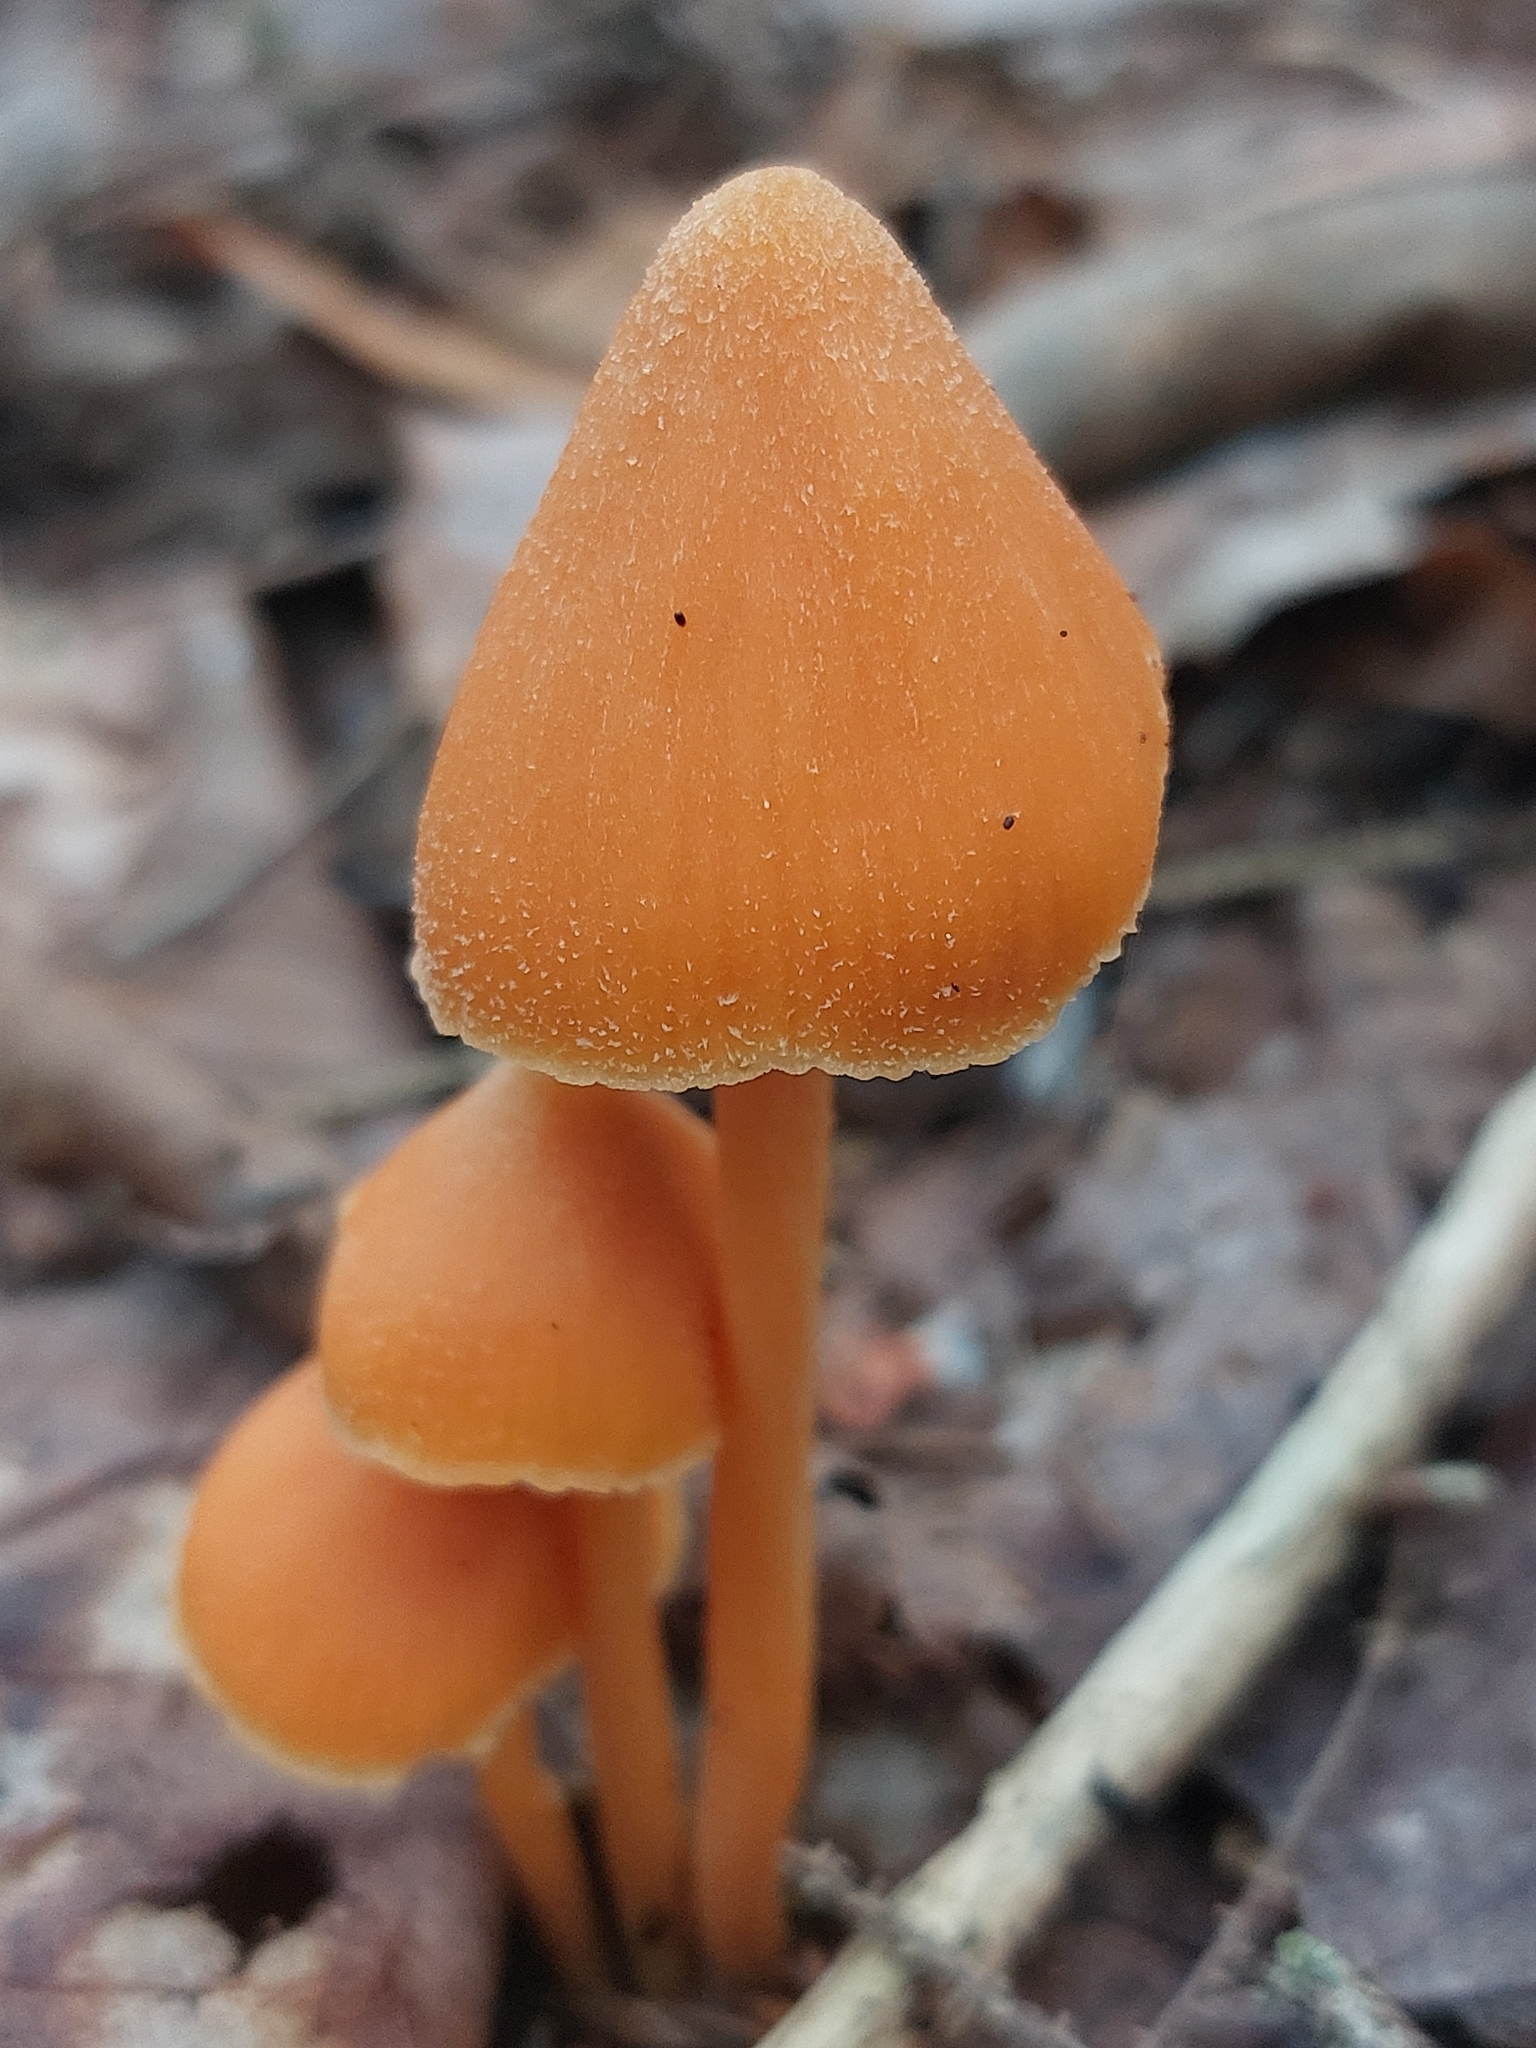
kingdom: Fungi
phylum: Basidiomycota
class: Agaricomycetes
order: Agaricales
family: Entolomataceae
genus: Entoloma
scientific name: Entoloma quadratum
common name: Salmon pinkgill
